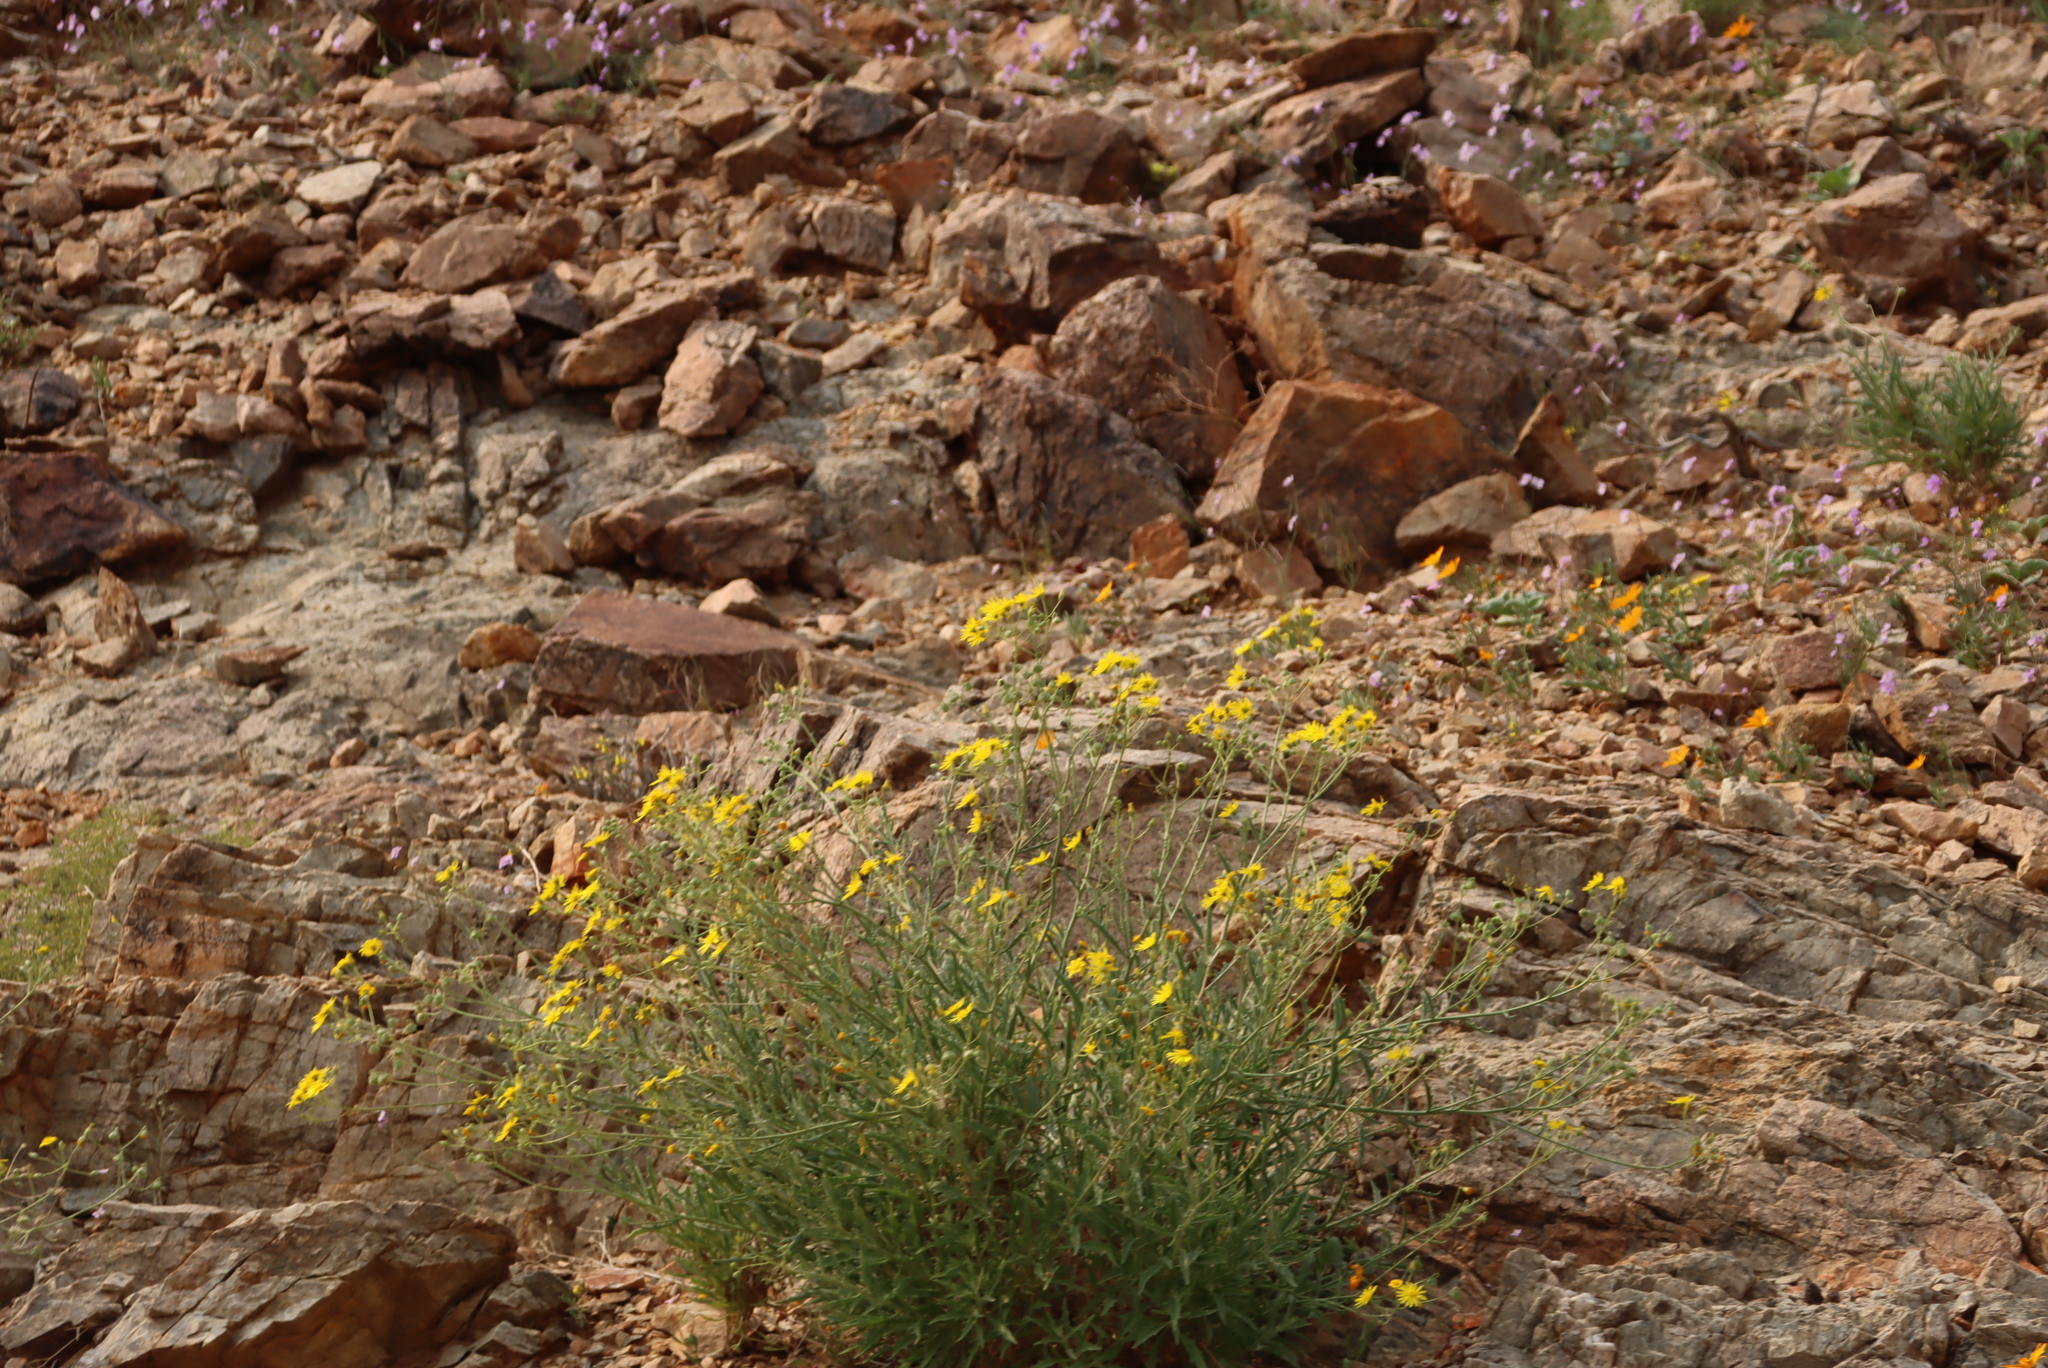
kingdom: Plantae
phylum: Tracheophyta
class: Magnoliopsida
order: Brassicales
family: Brassicaceae
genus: Heliophila
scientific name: Heliophila trifurca
